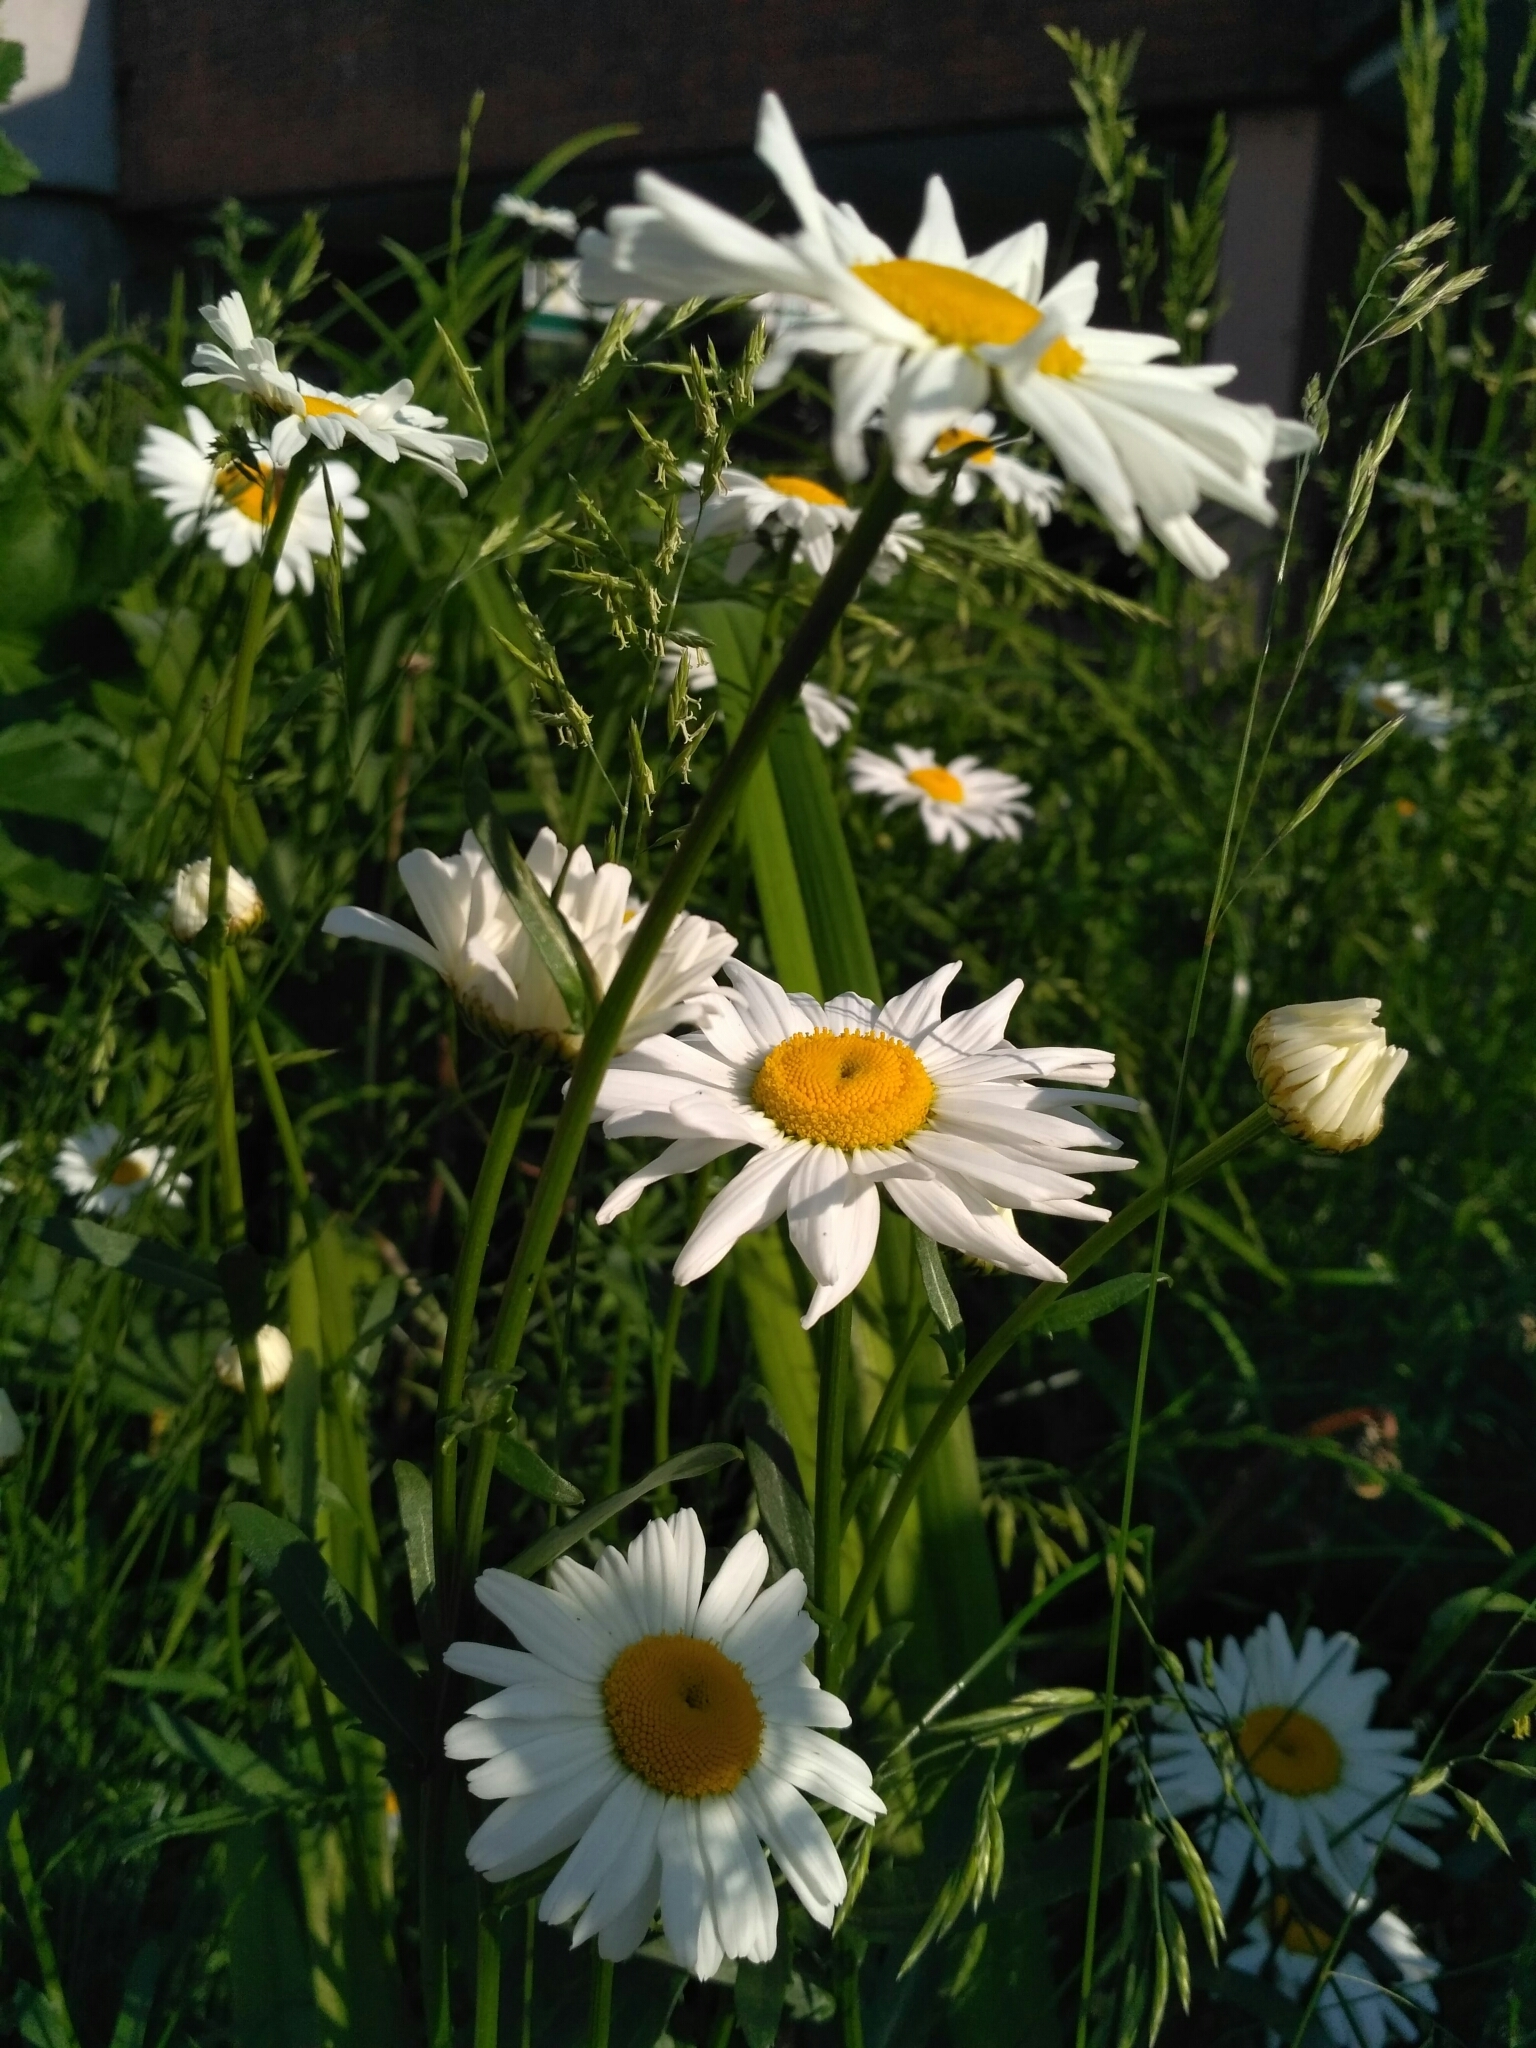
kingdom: Plantae
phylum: Tracheophyta
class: Magnoliopsida
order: Asterales
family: Asteraceae
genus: Leucanthemum
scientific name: Leucanthemum vulgare
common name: Oxeye daisy
